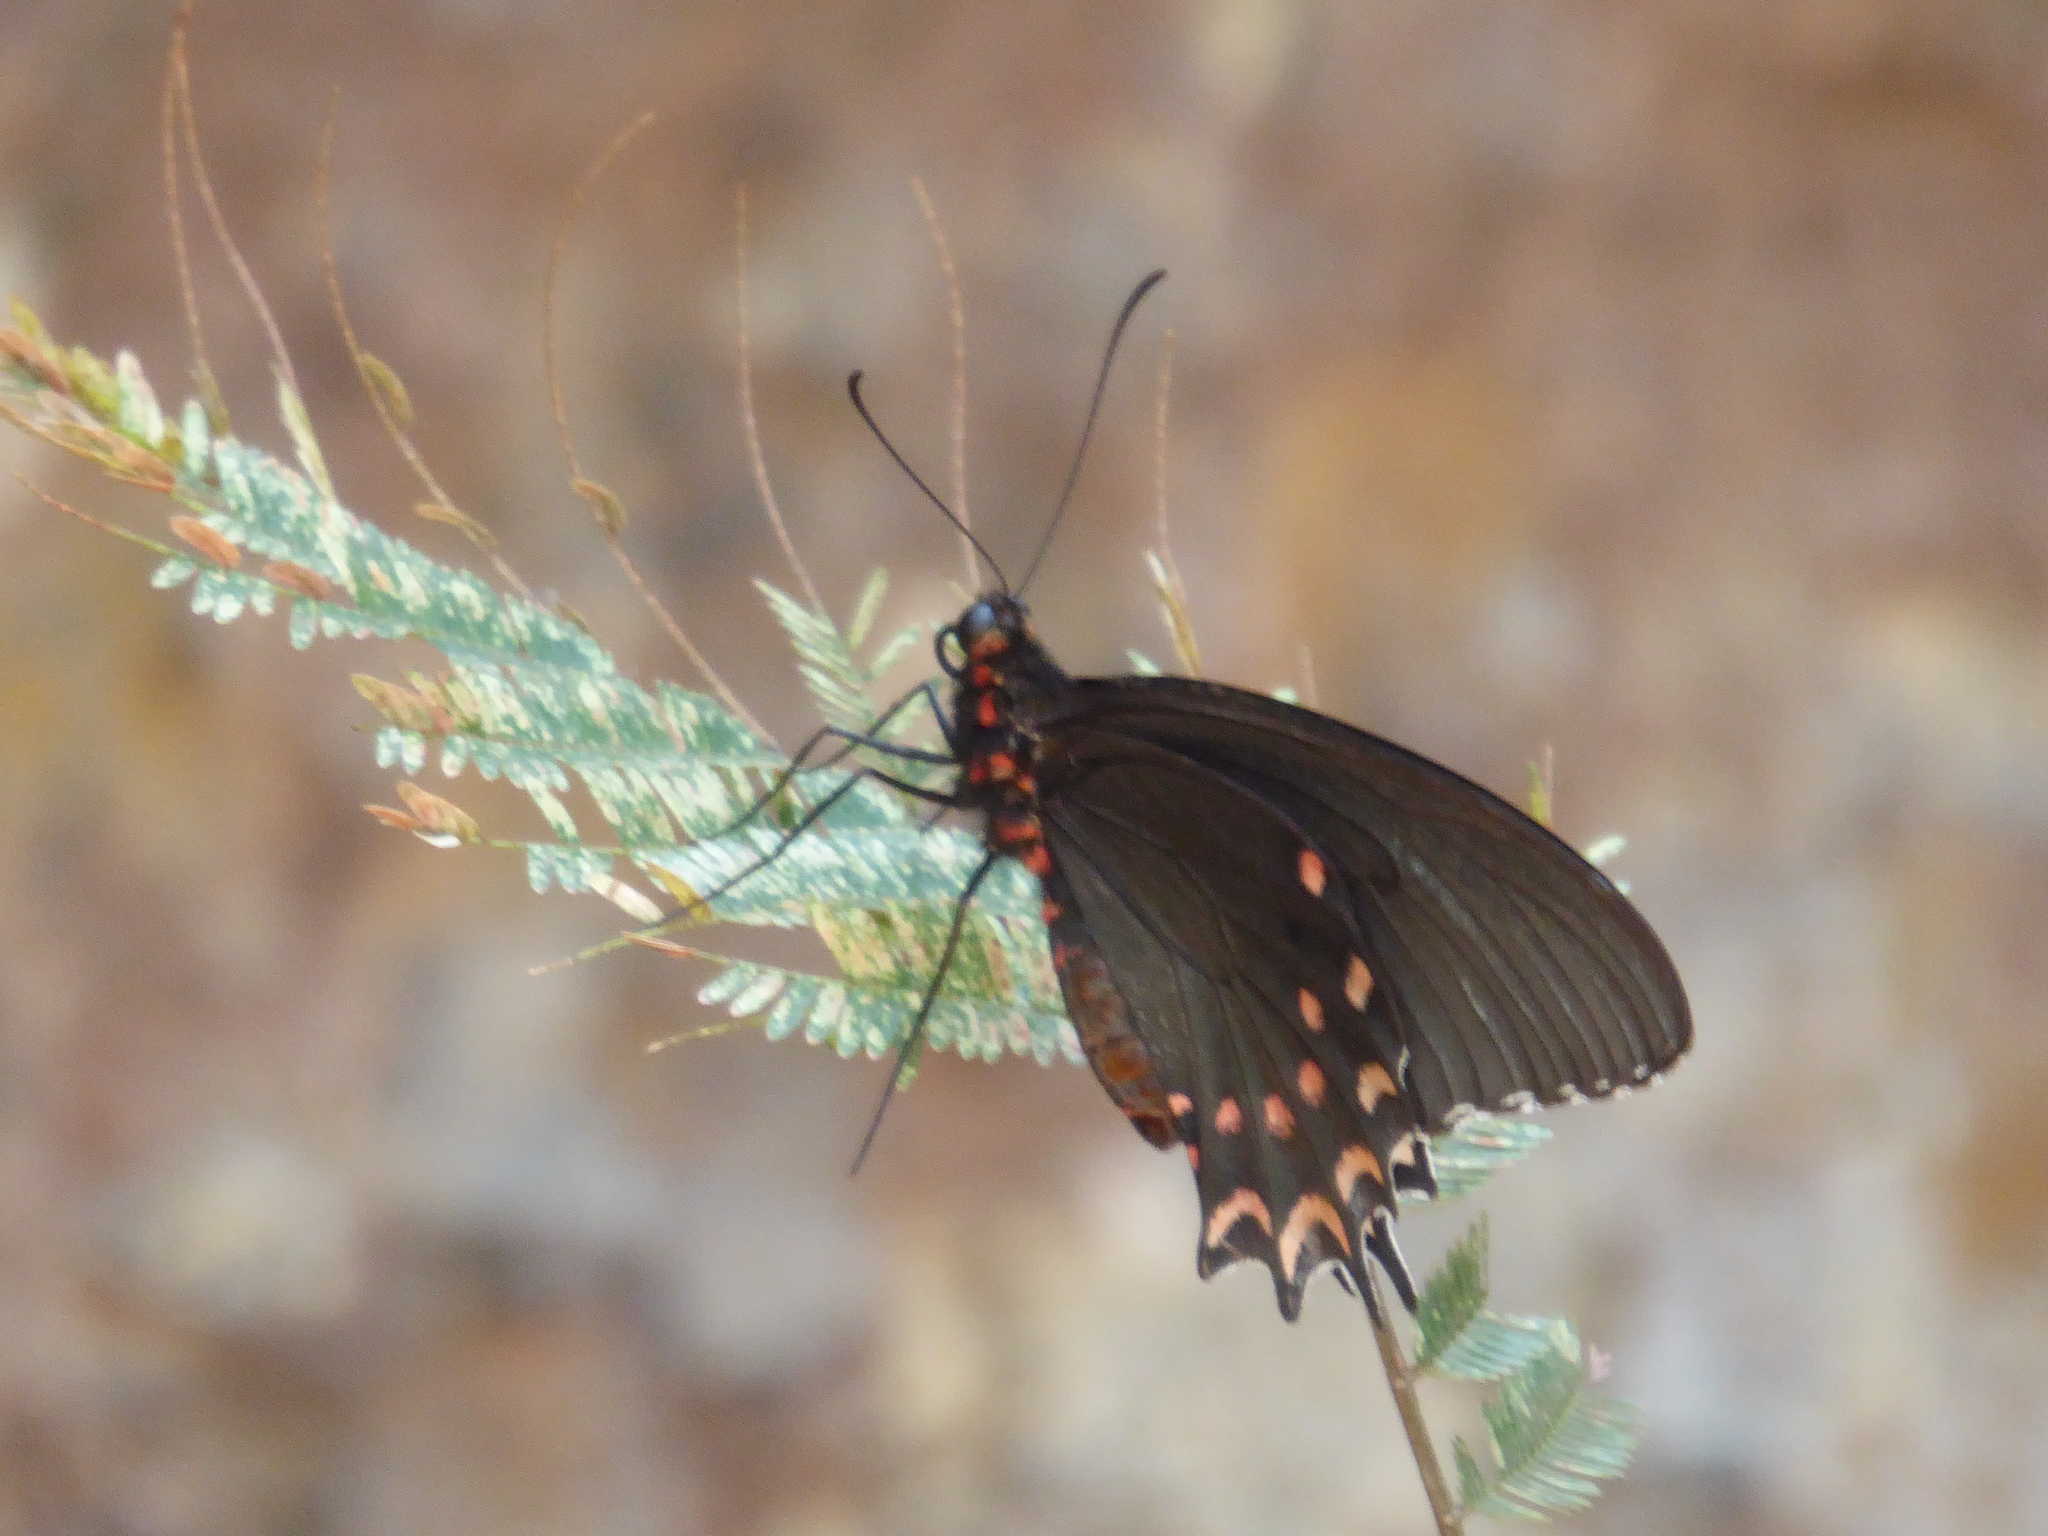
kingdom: Animalia
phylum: Arthropoda
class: Insecta
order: Lepidoptera
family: Papilionidae
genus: Parides
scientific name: Parides photinus
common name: Pink-spotted cattleheart
